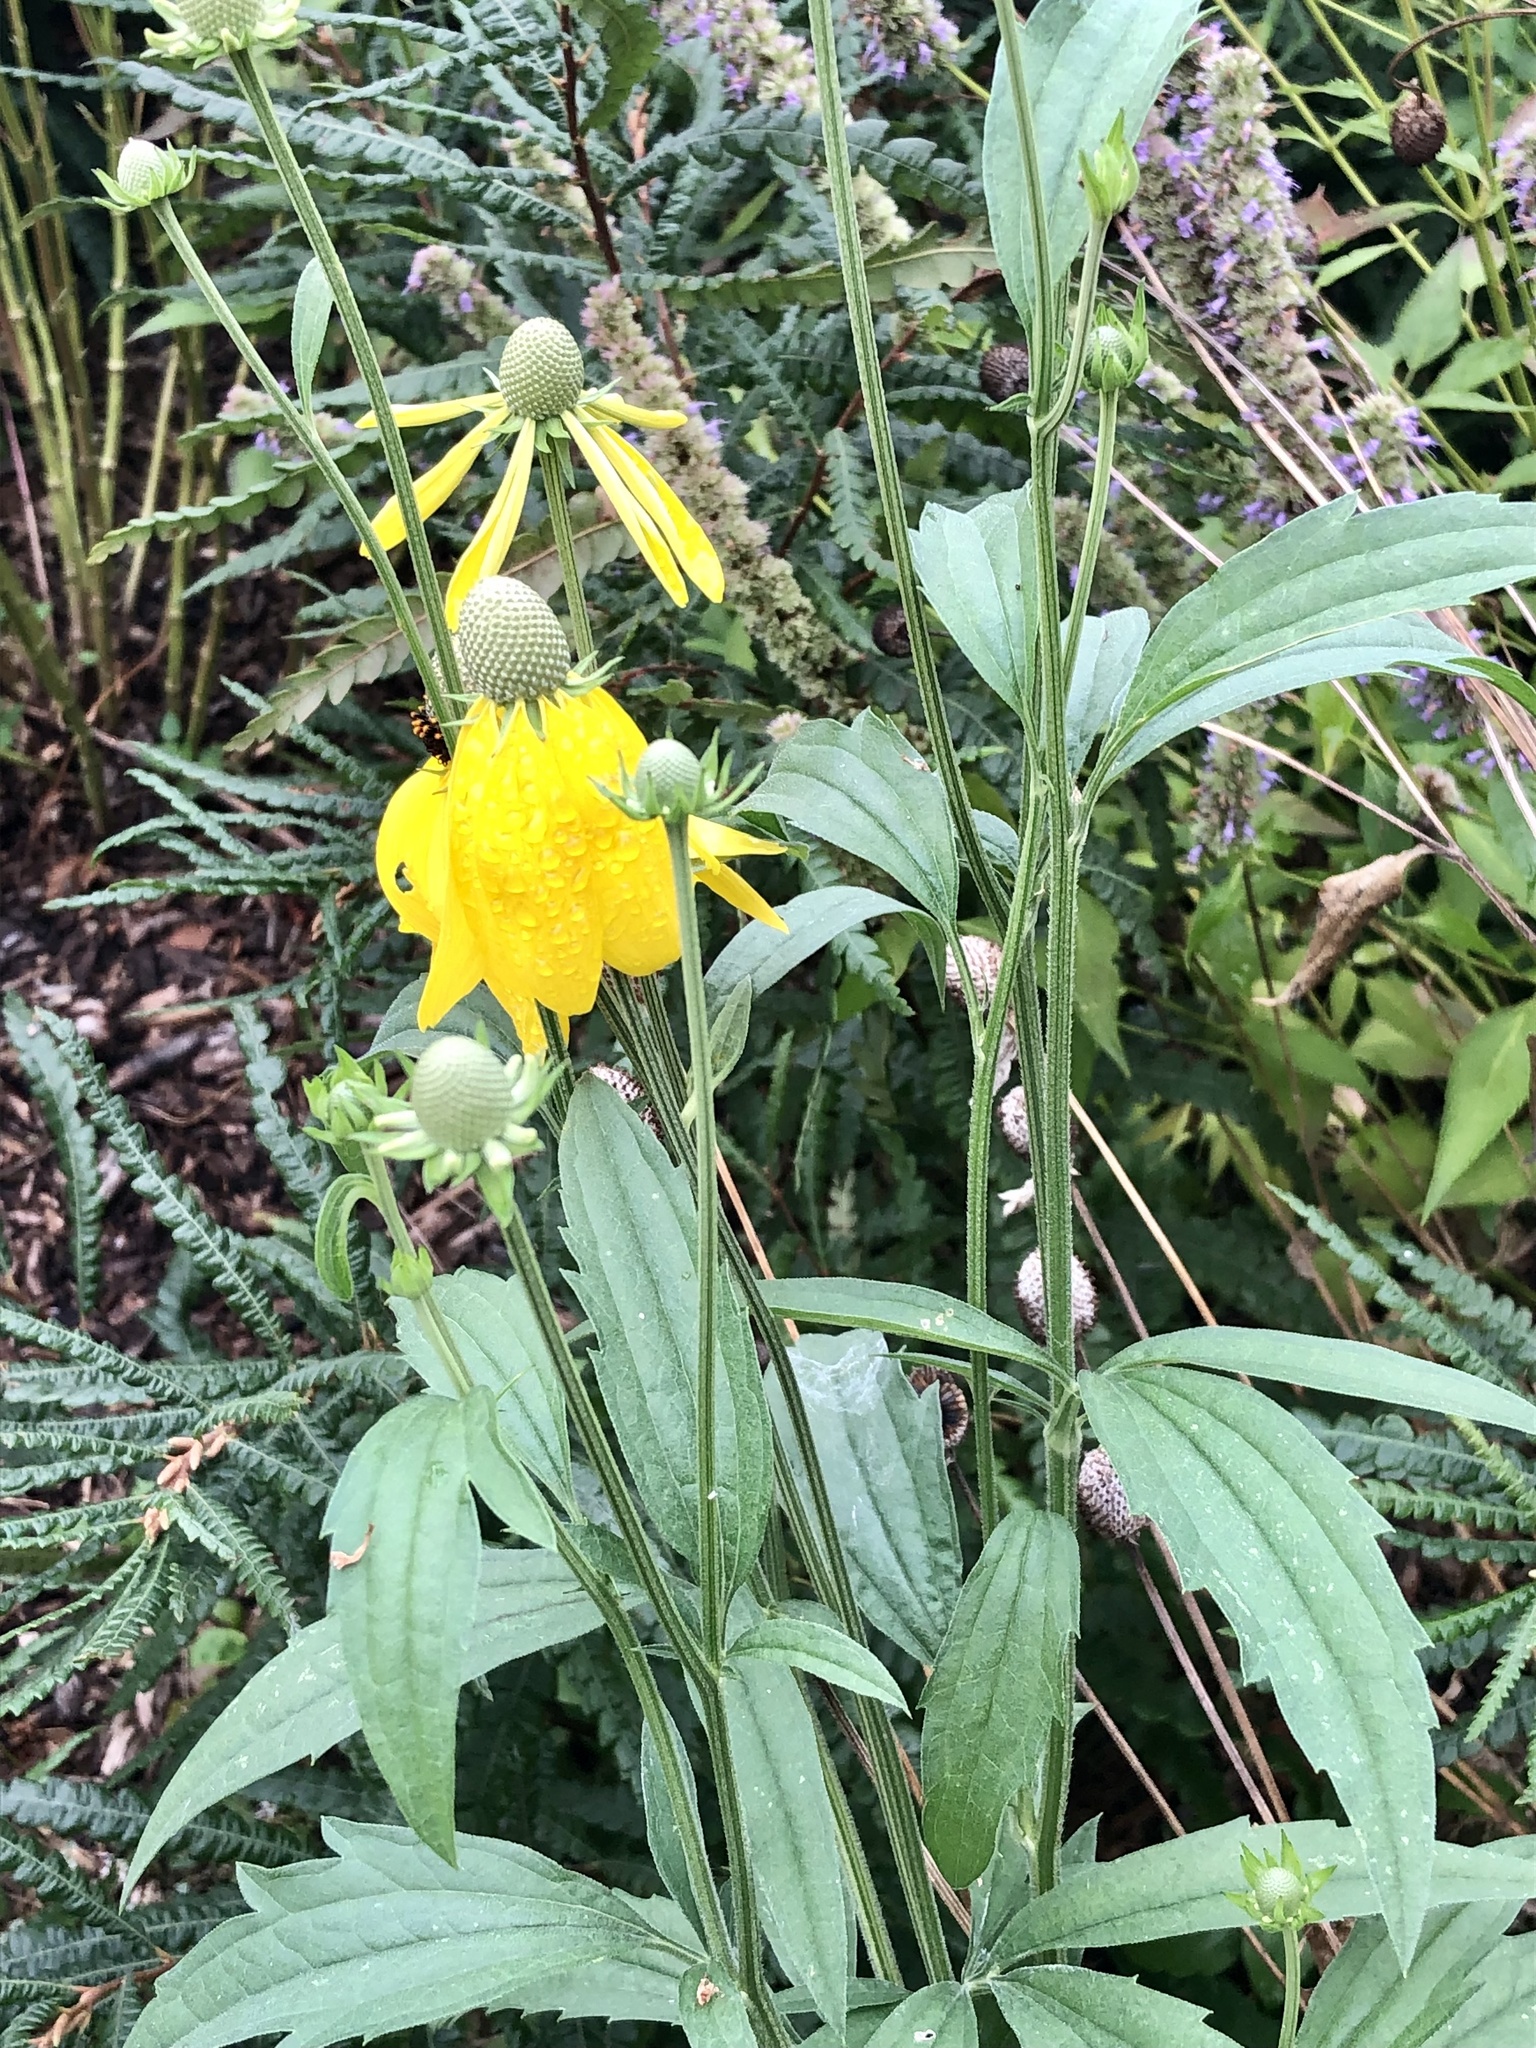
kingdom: Plantae
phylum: Tracheophyta
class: Magnoliopsida
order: Asterales
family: Asteraceae
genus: Ratibida
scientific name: Ratibida pinnata
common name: Drooping prairie-coneflower
